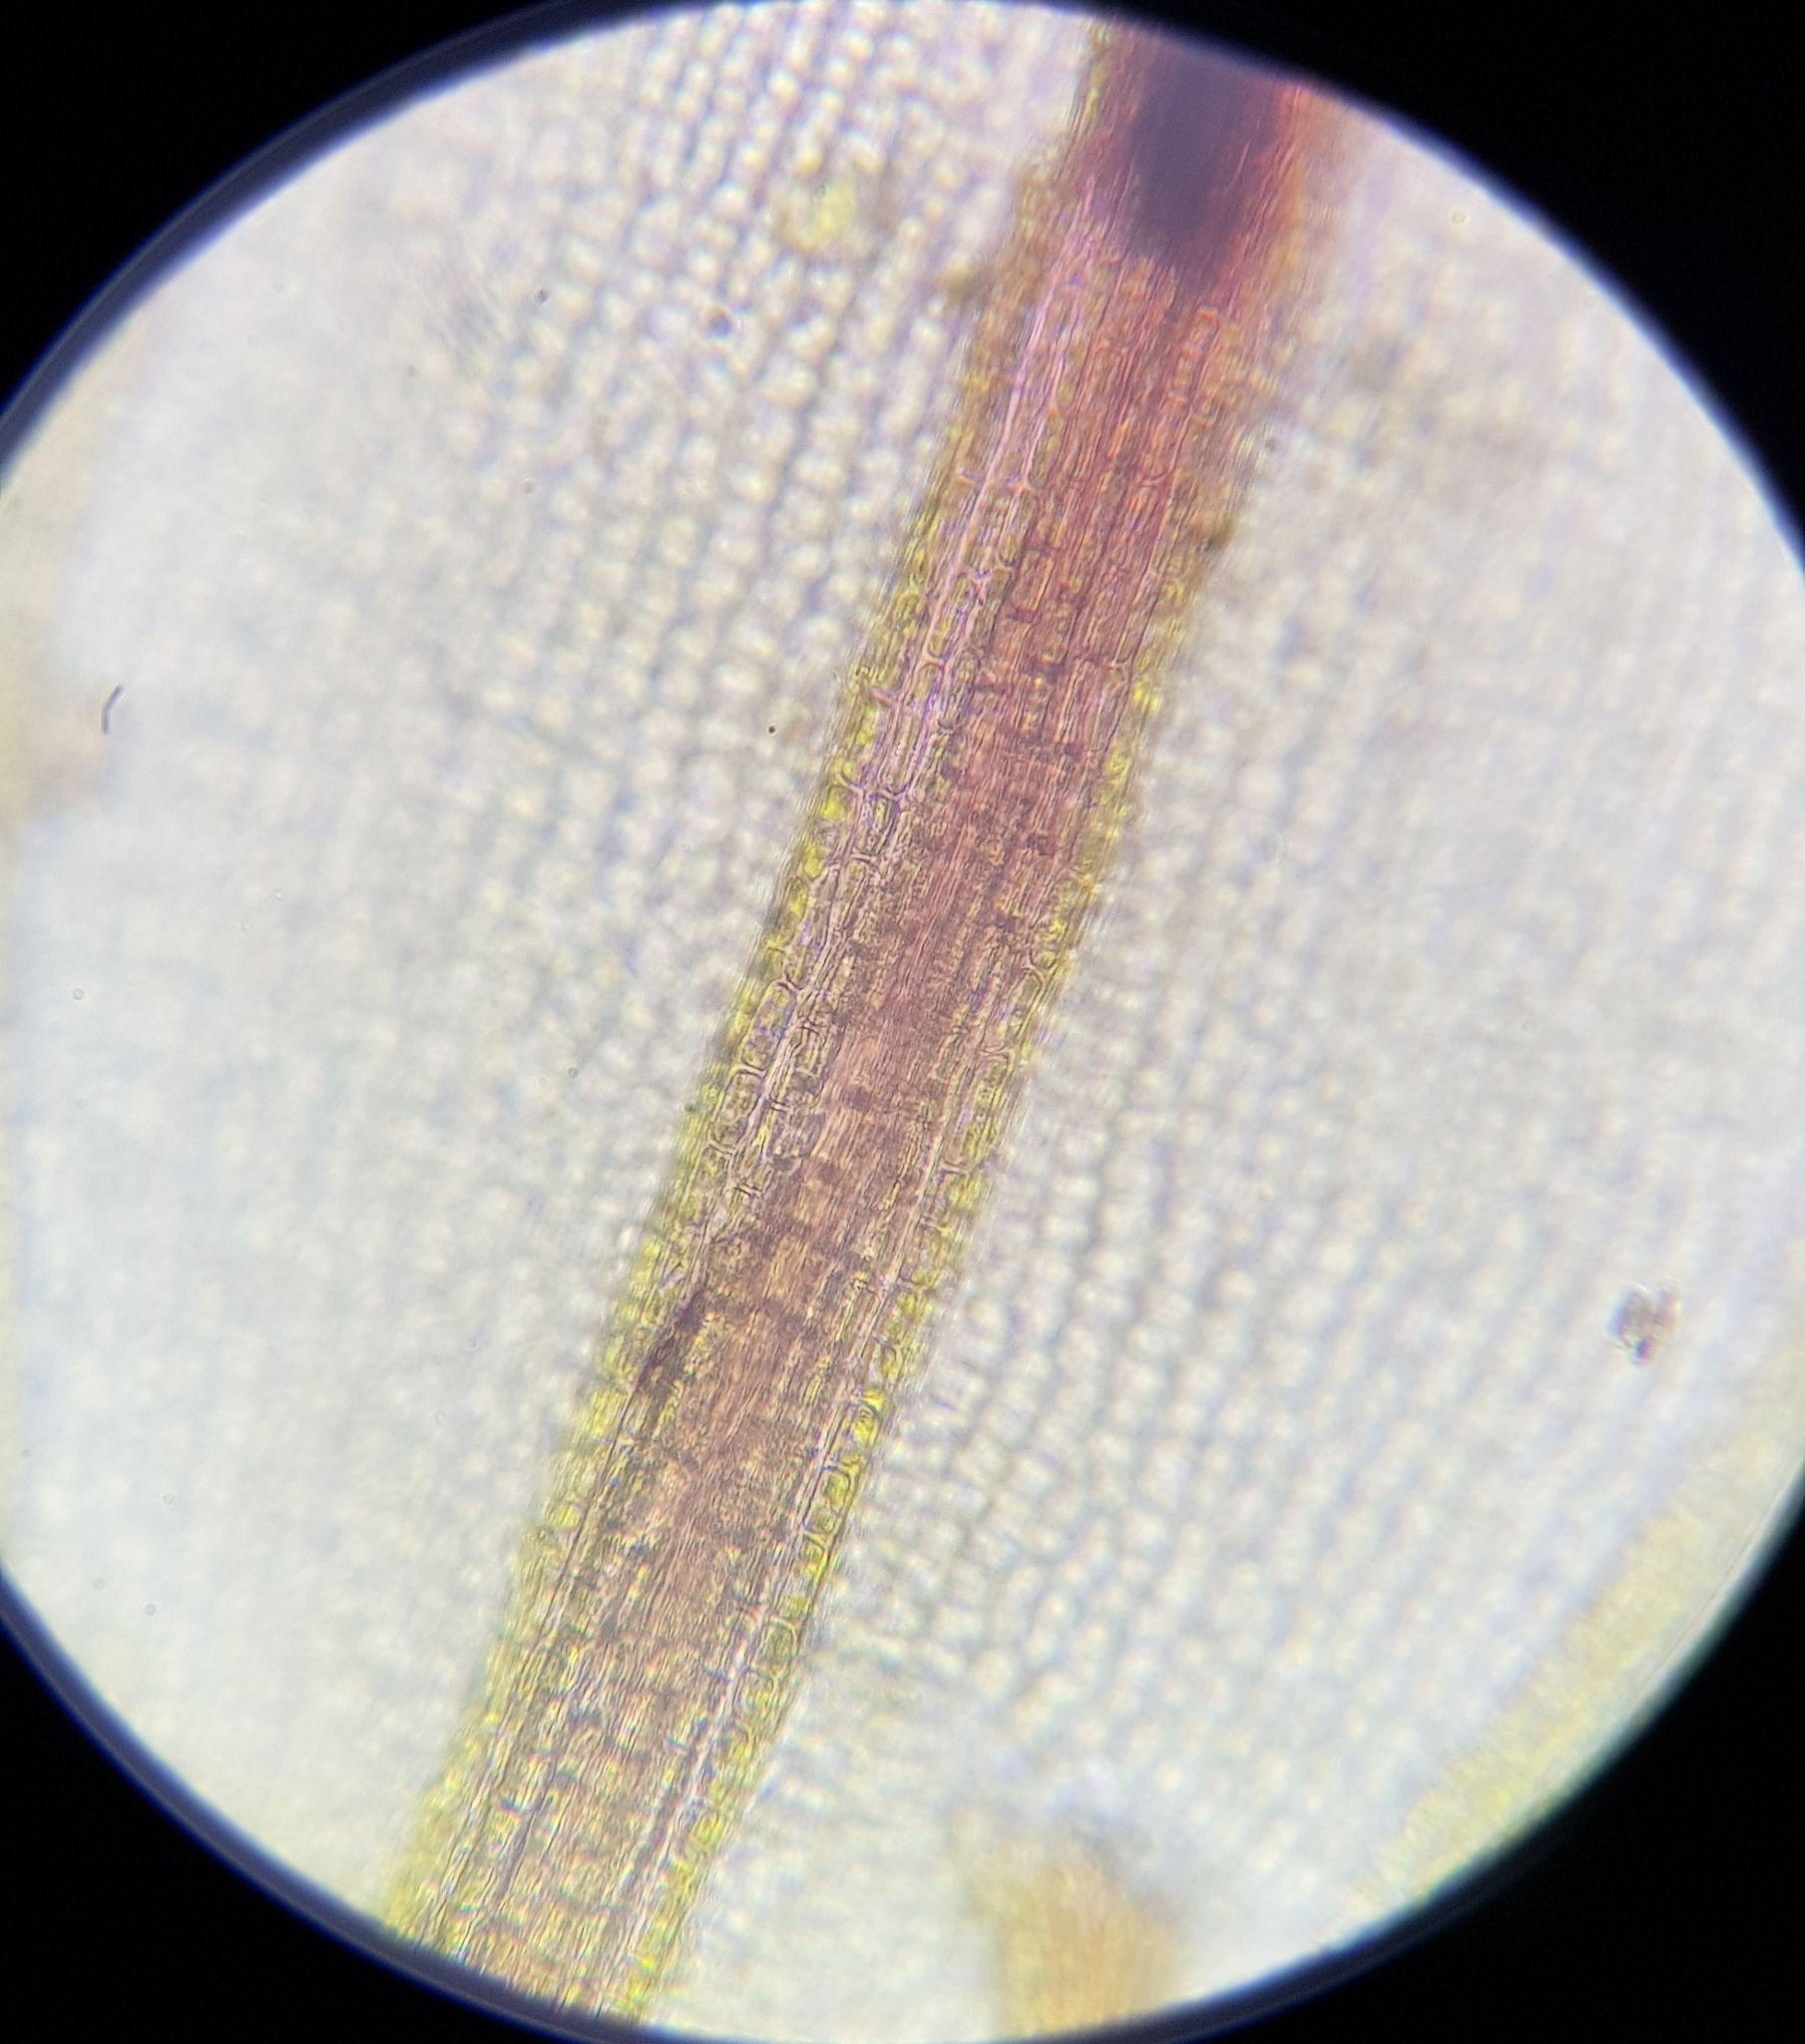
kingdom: Plantae
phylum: Bryophyta
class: Bryopsida
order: Dicranales
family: Ditrichaceae
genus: Ceratodon
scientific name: Ceratodon purpureus
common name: Redshank
